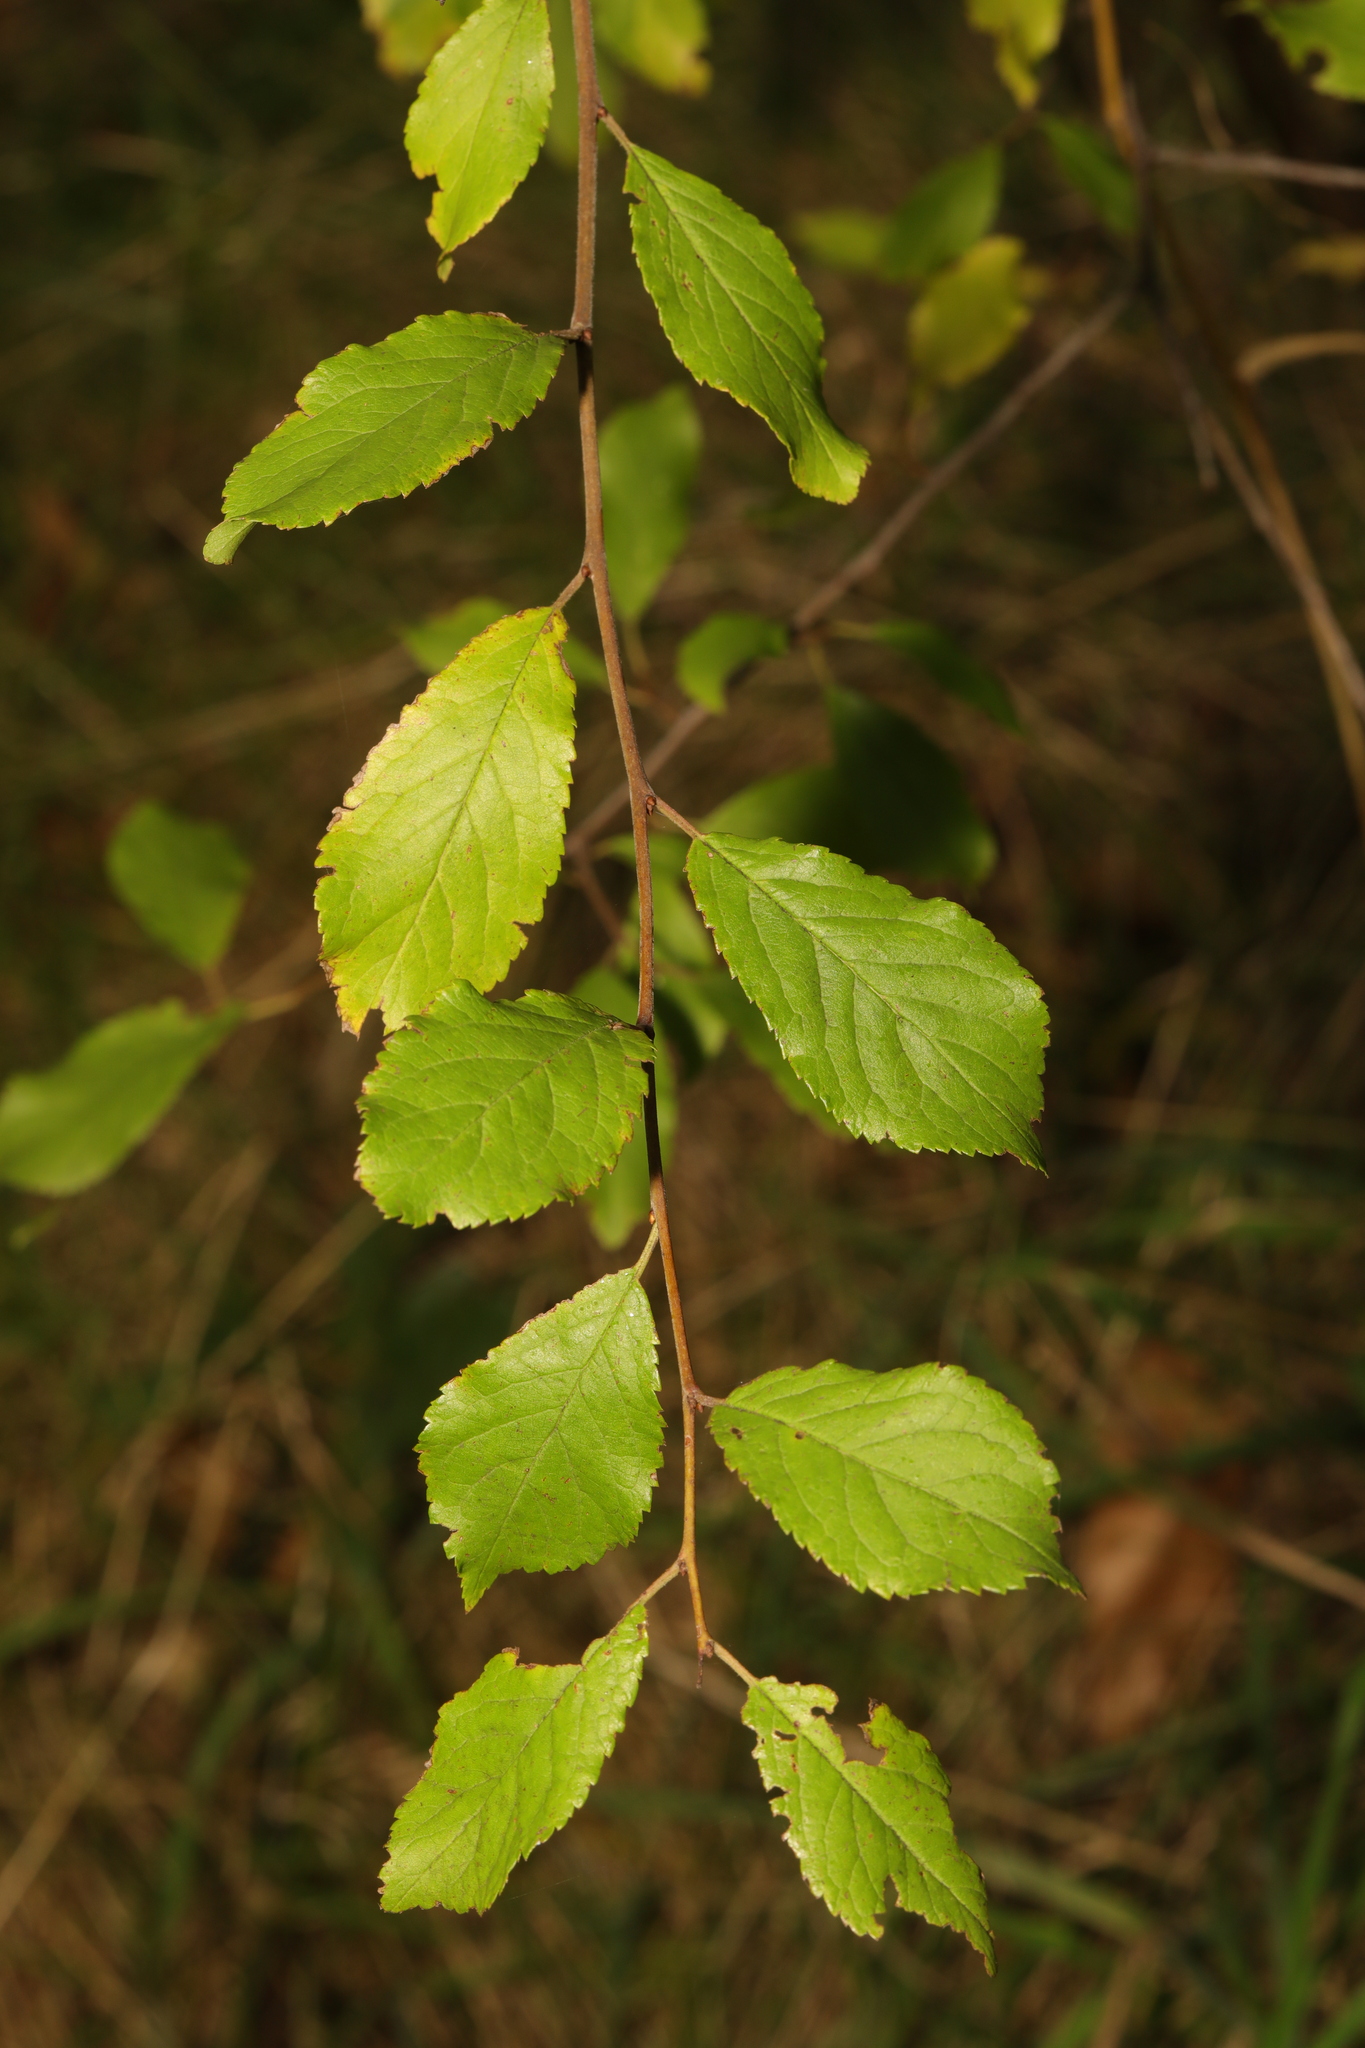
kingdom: Plantae
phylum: Tracheophyta
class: Magnoliopsida
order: Rosales
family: Rosaceae
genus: Prunus
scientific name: Prunus spinosa
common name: Blackthorn
